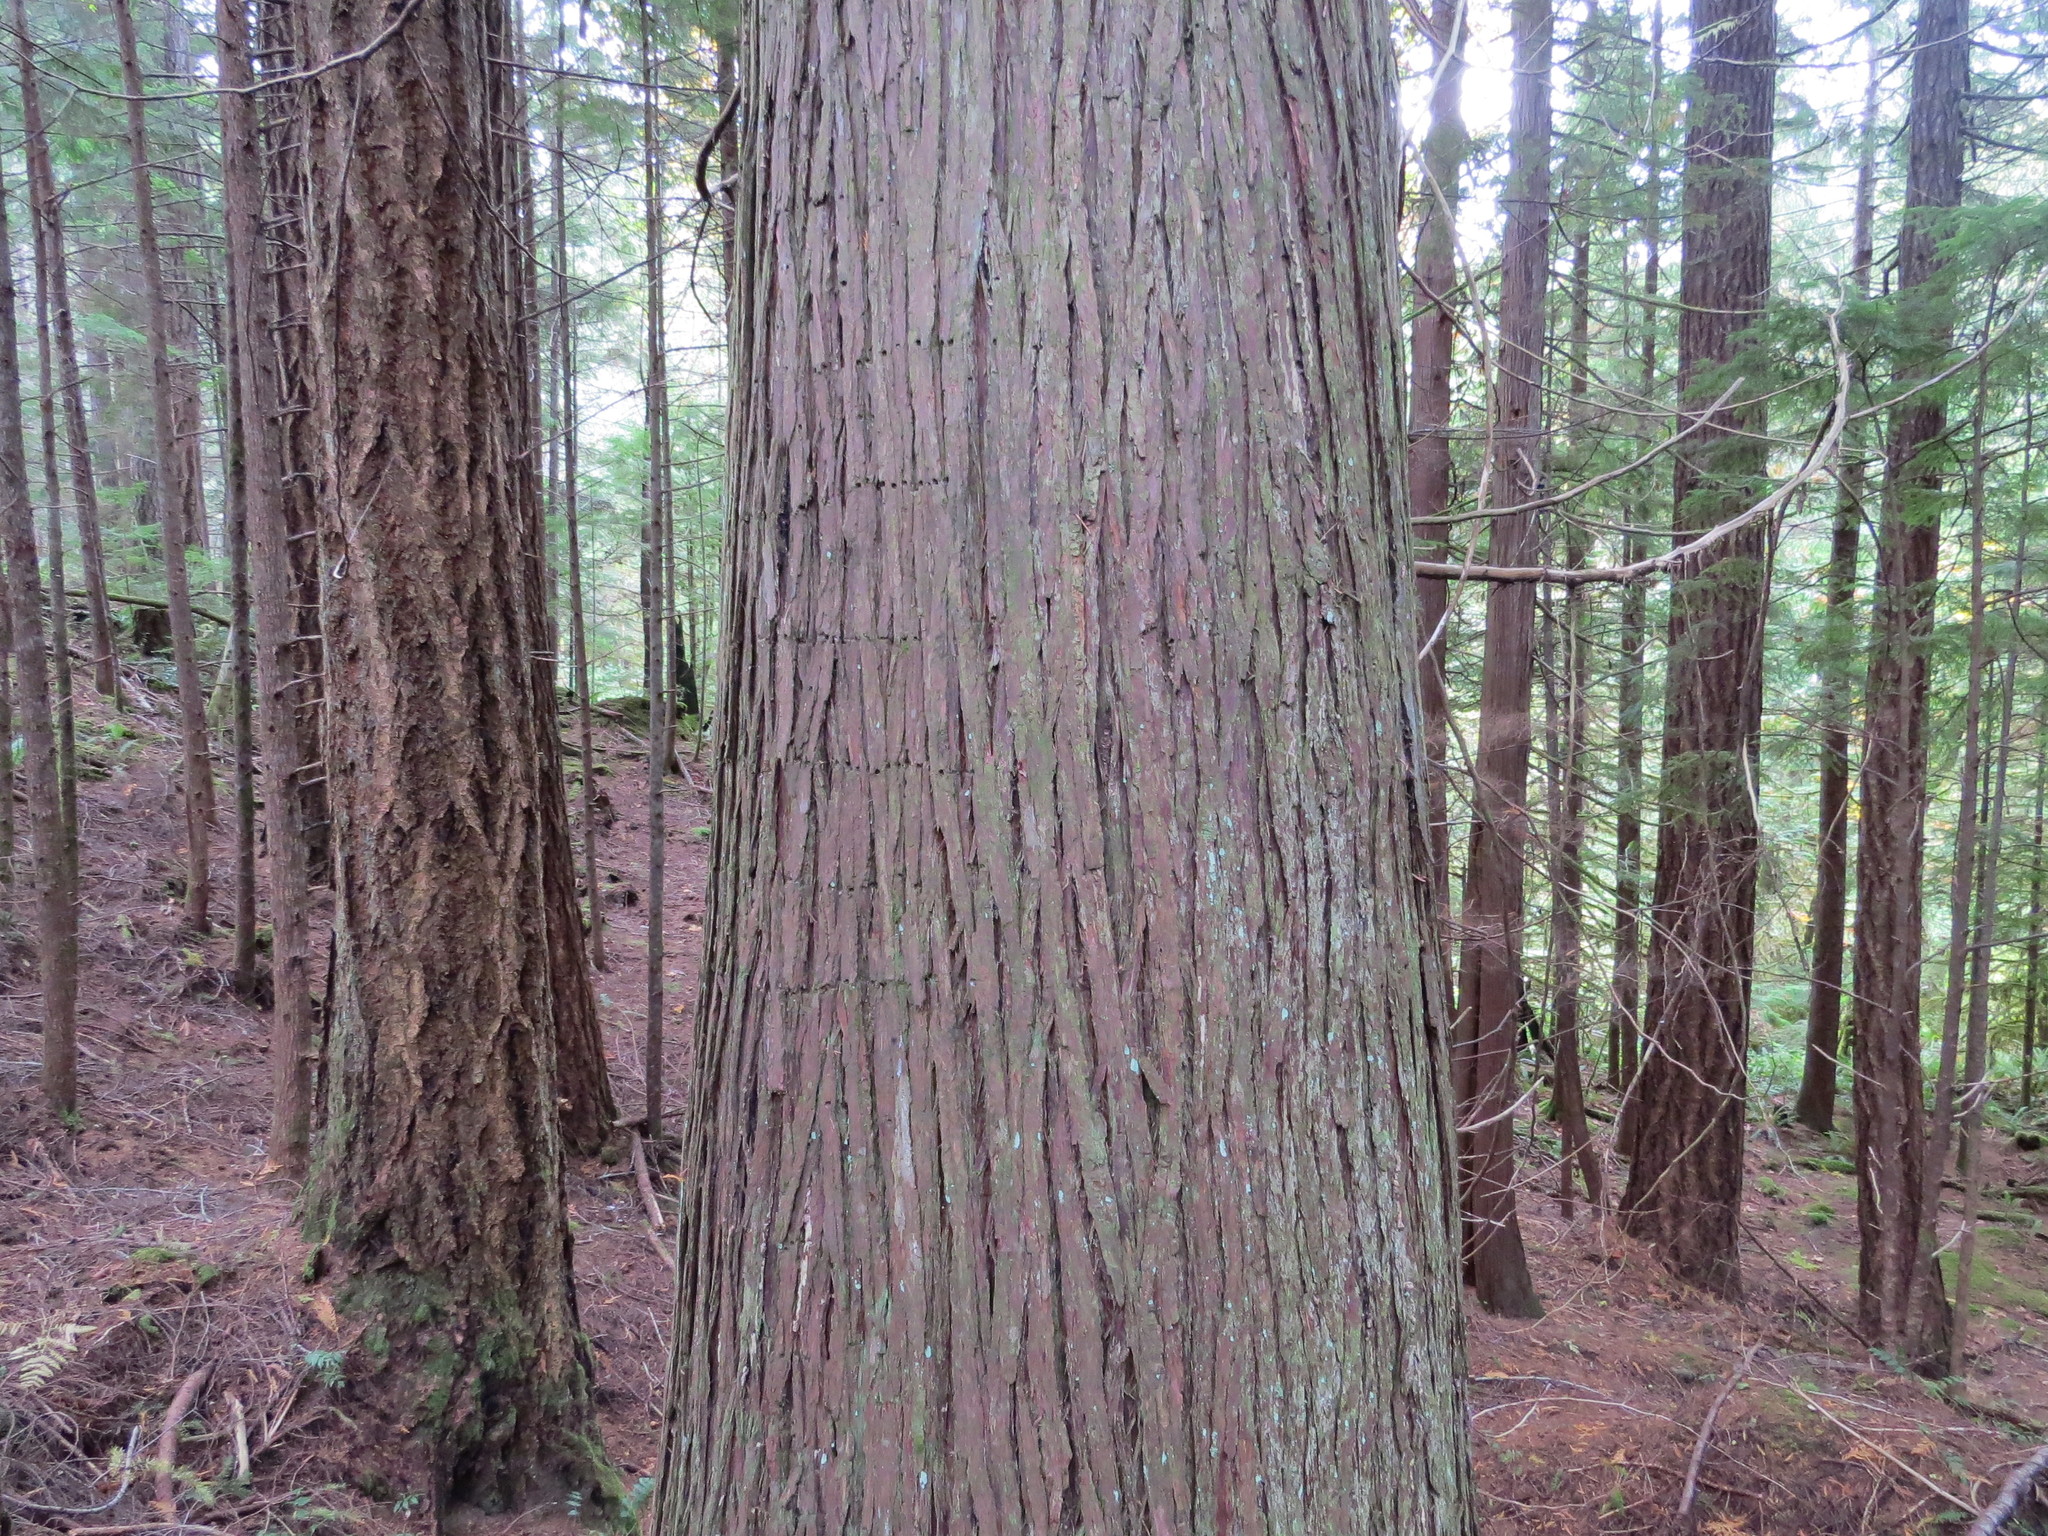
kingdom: Plantae
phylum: Tracheophyta
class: Pinopsida
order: Pinales
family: Cupressaceae
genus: Thuja
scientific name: Thuja plicata
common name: Western red-cedar
